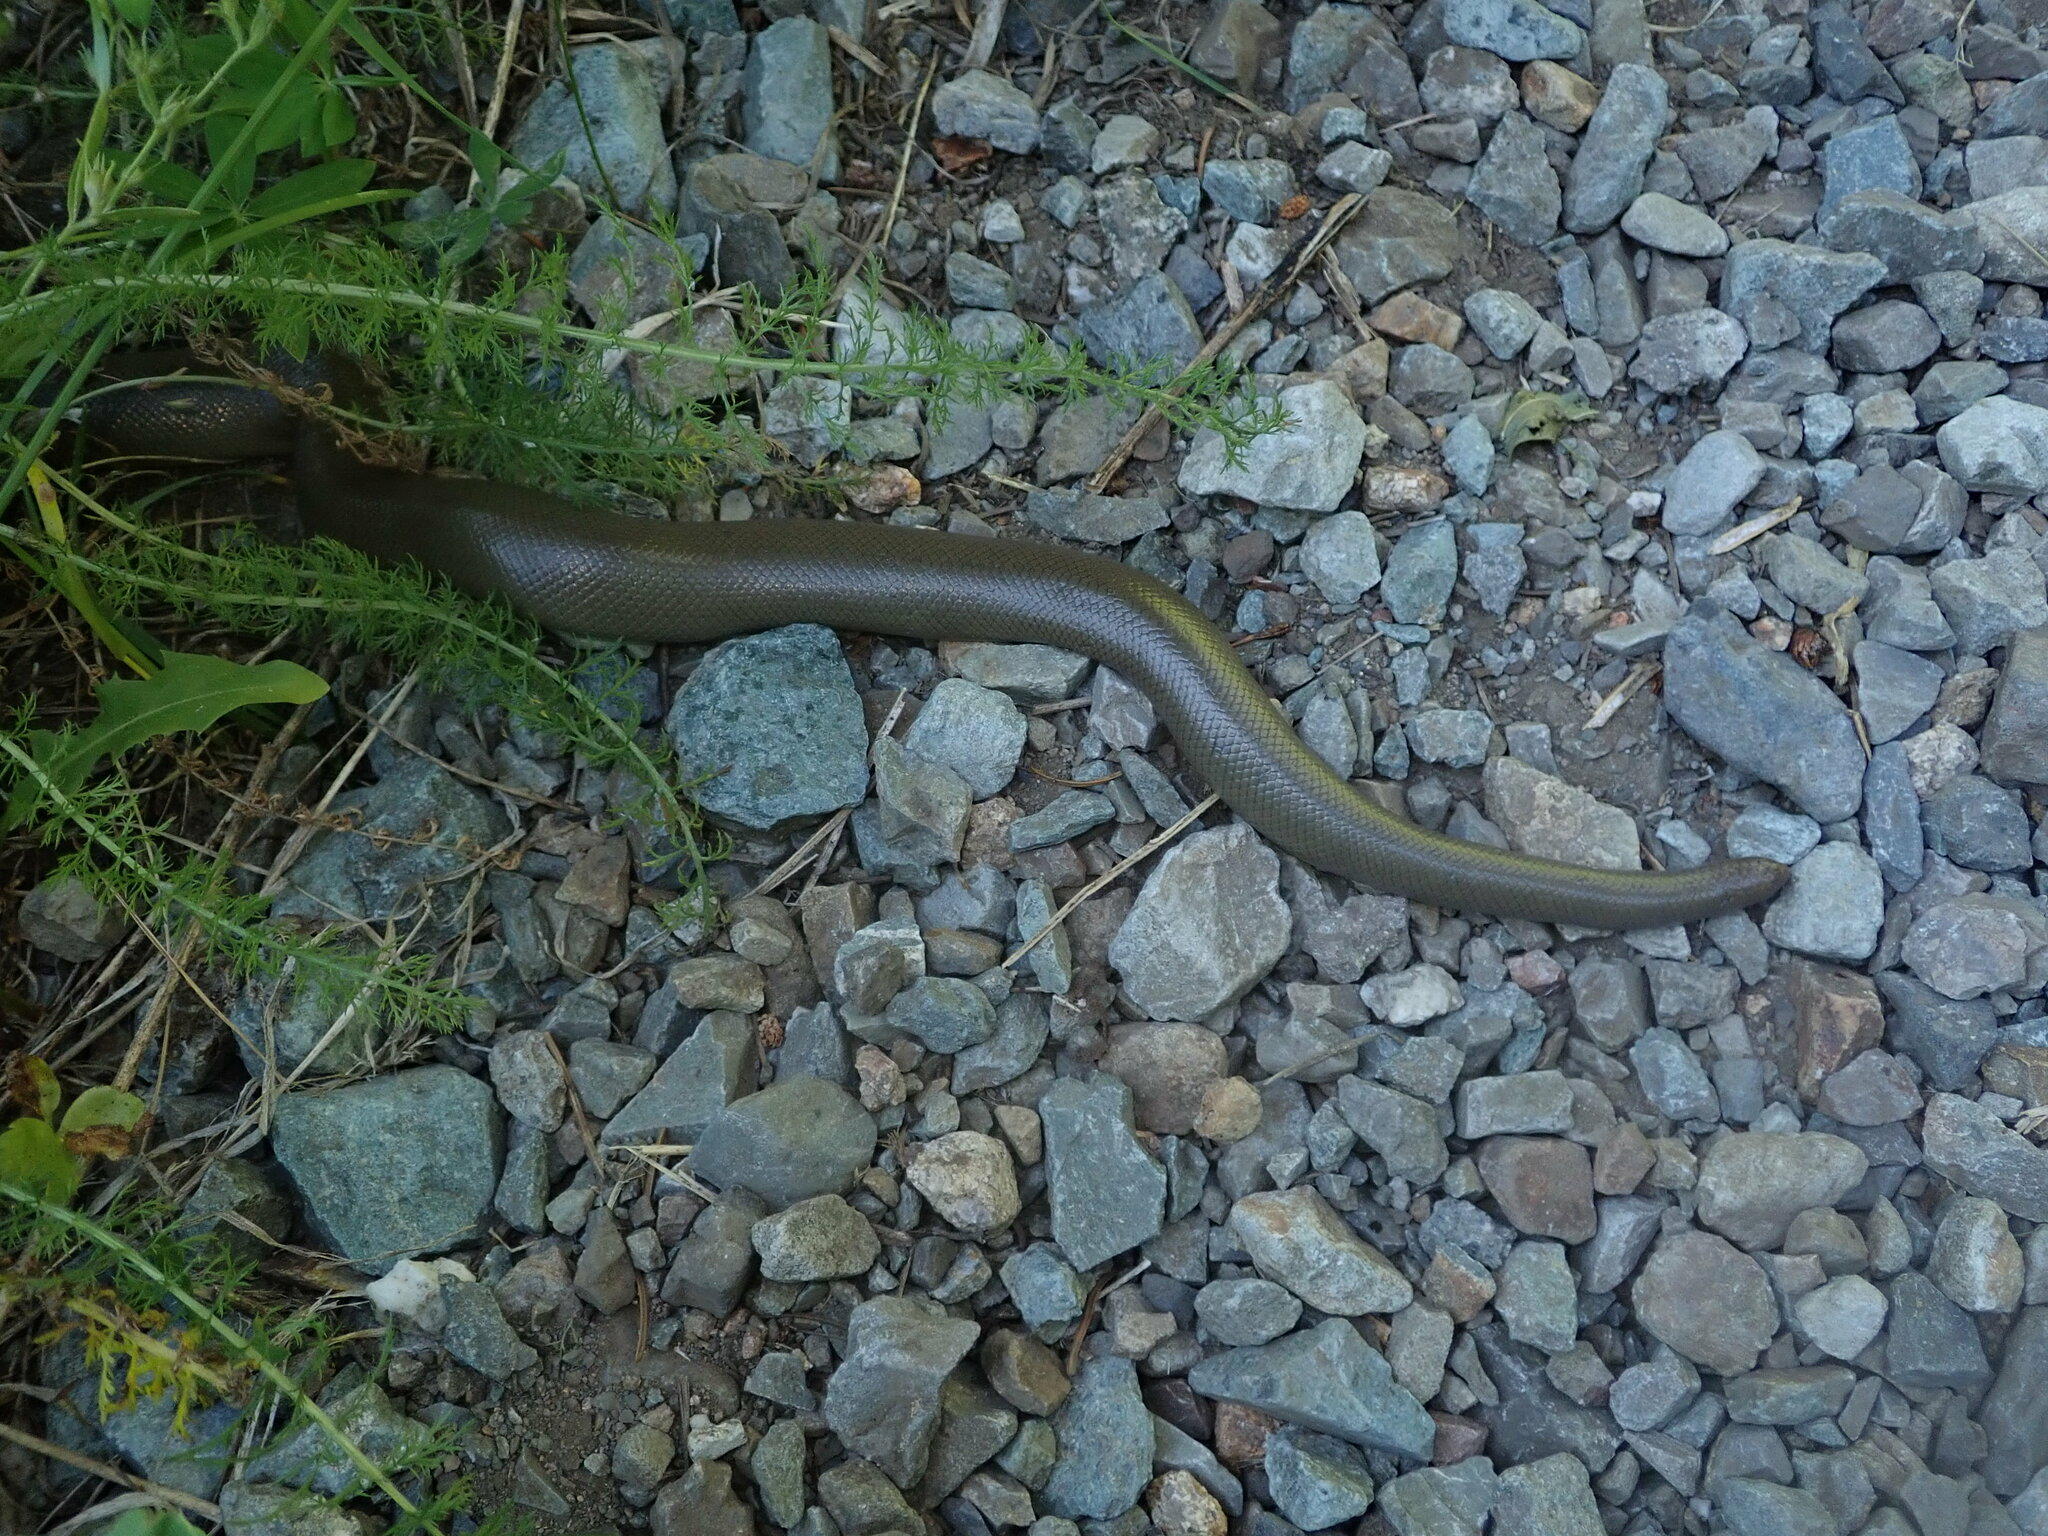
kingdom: Animalia
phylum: Chordata
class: Squamata
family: Boidae
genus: Charina
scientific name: Charina bottae
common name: Northern rubber boa
